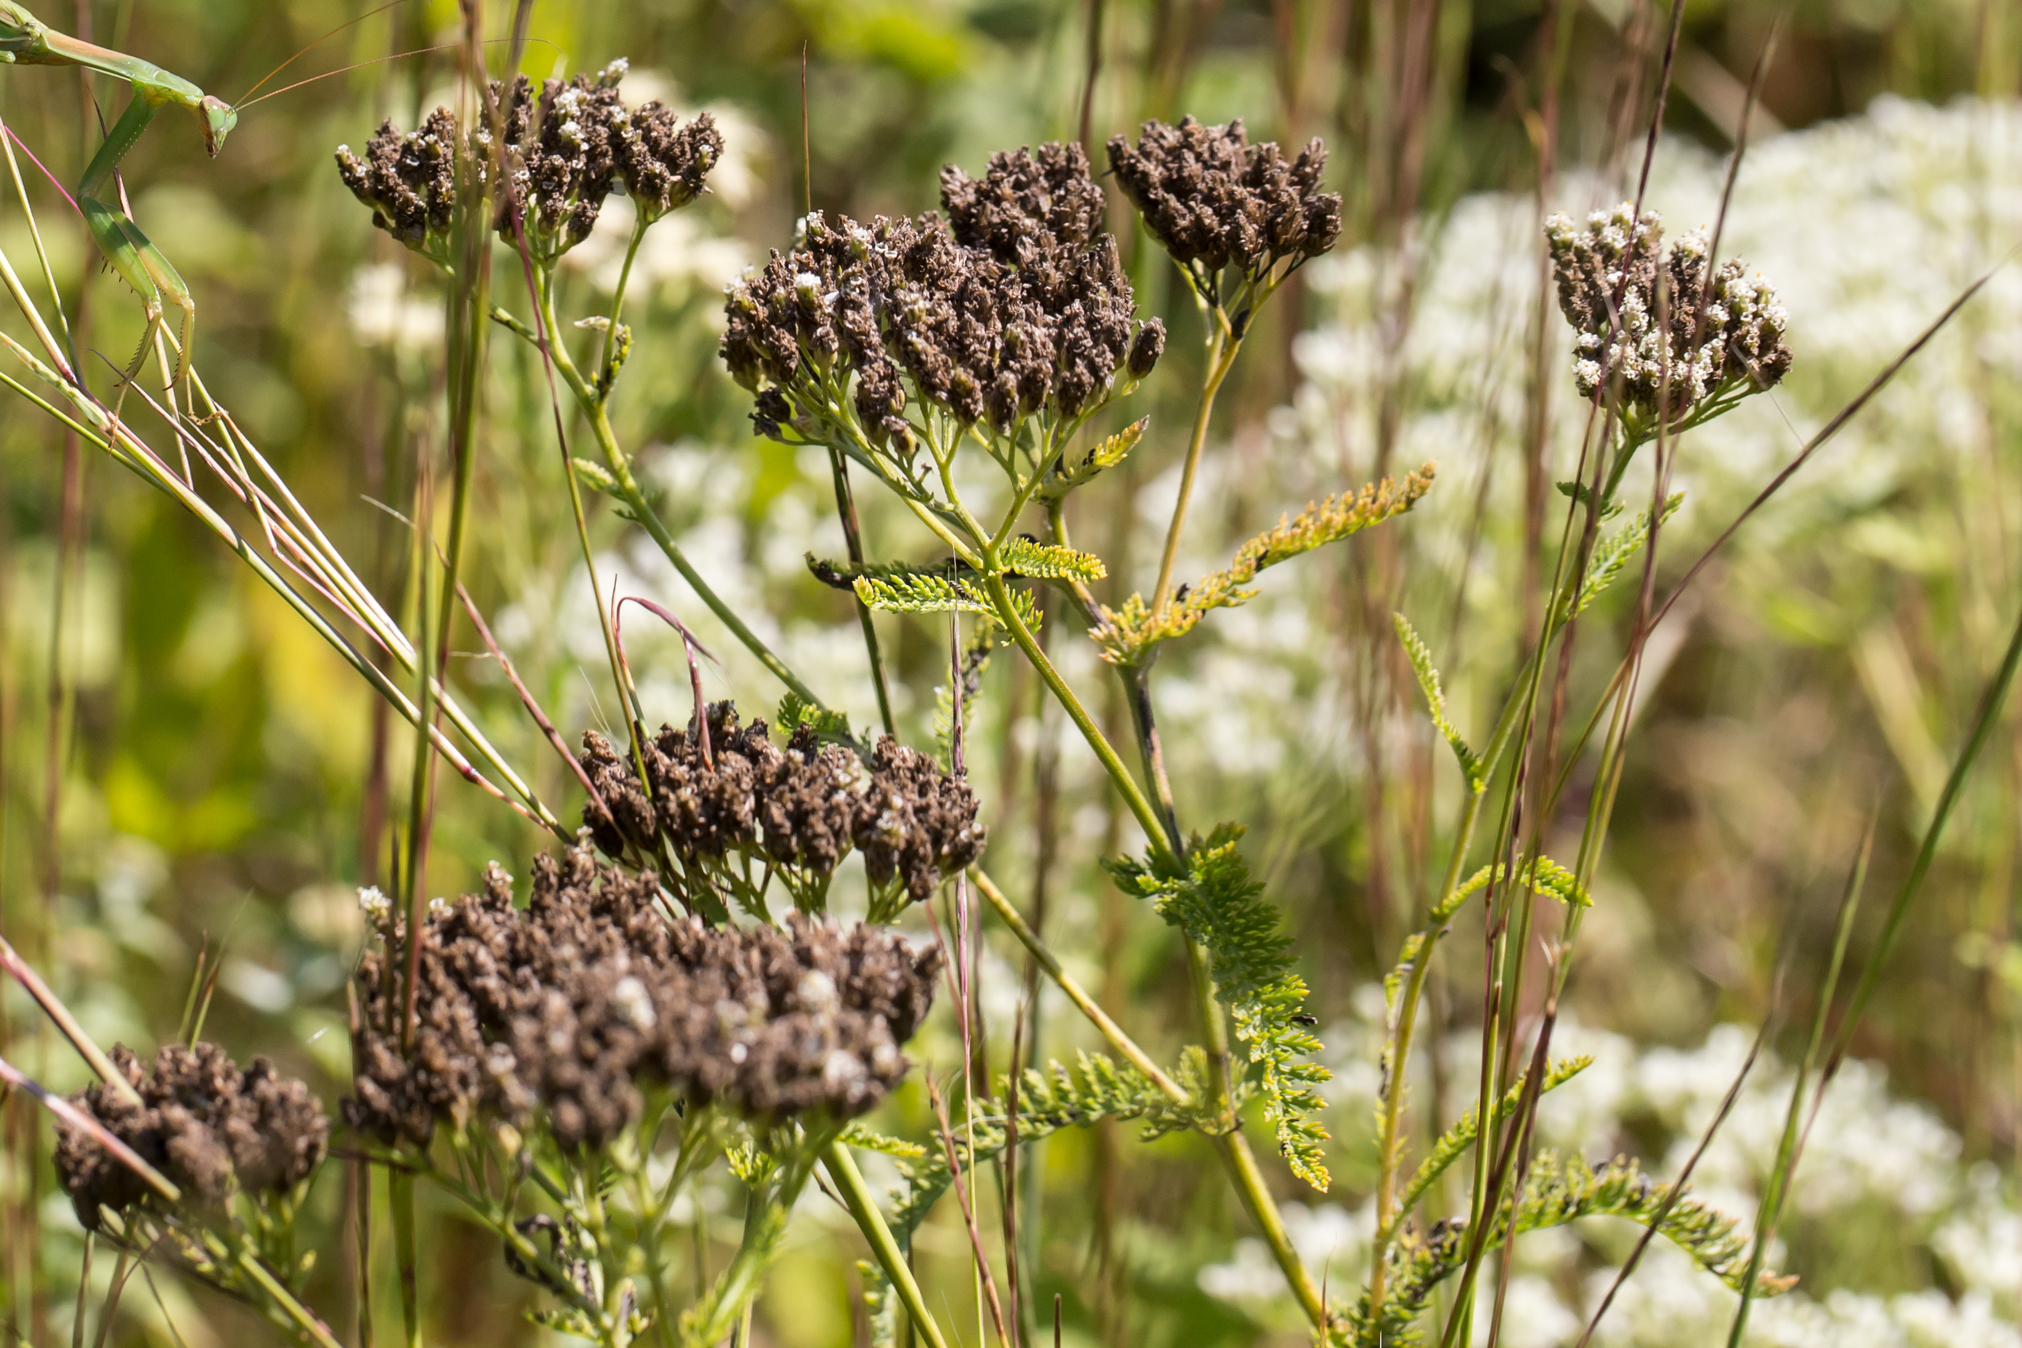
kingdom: Plantae
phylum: Tracheophyta
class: Magnoliopsida
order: Asterales
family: Asteraceae
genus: Achillea
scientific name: Achillea millefolium
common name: Yarrow
